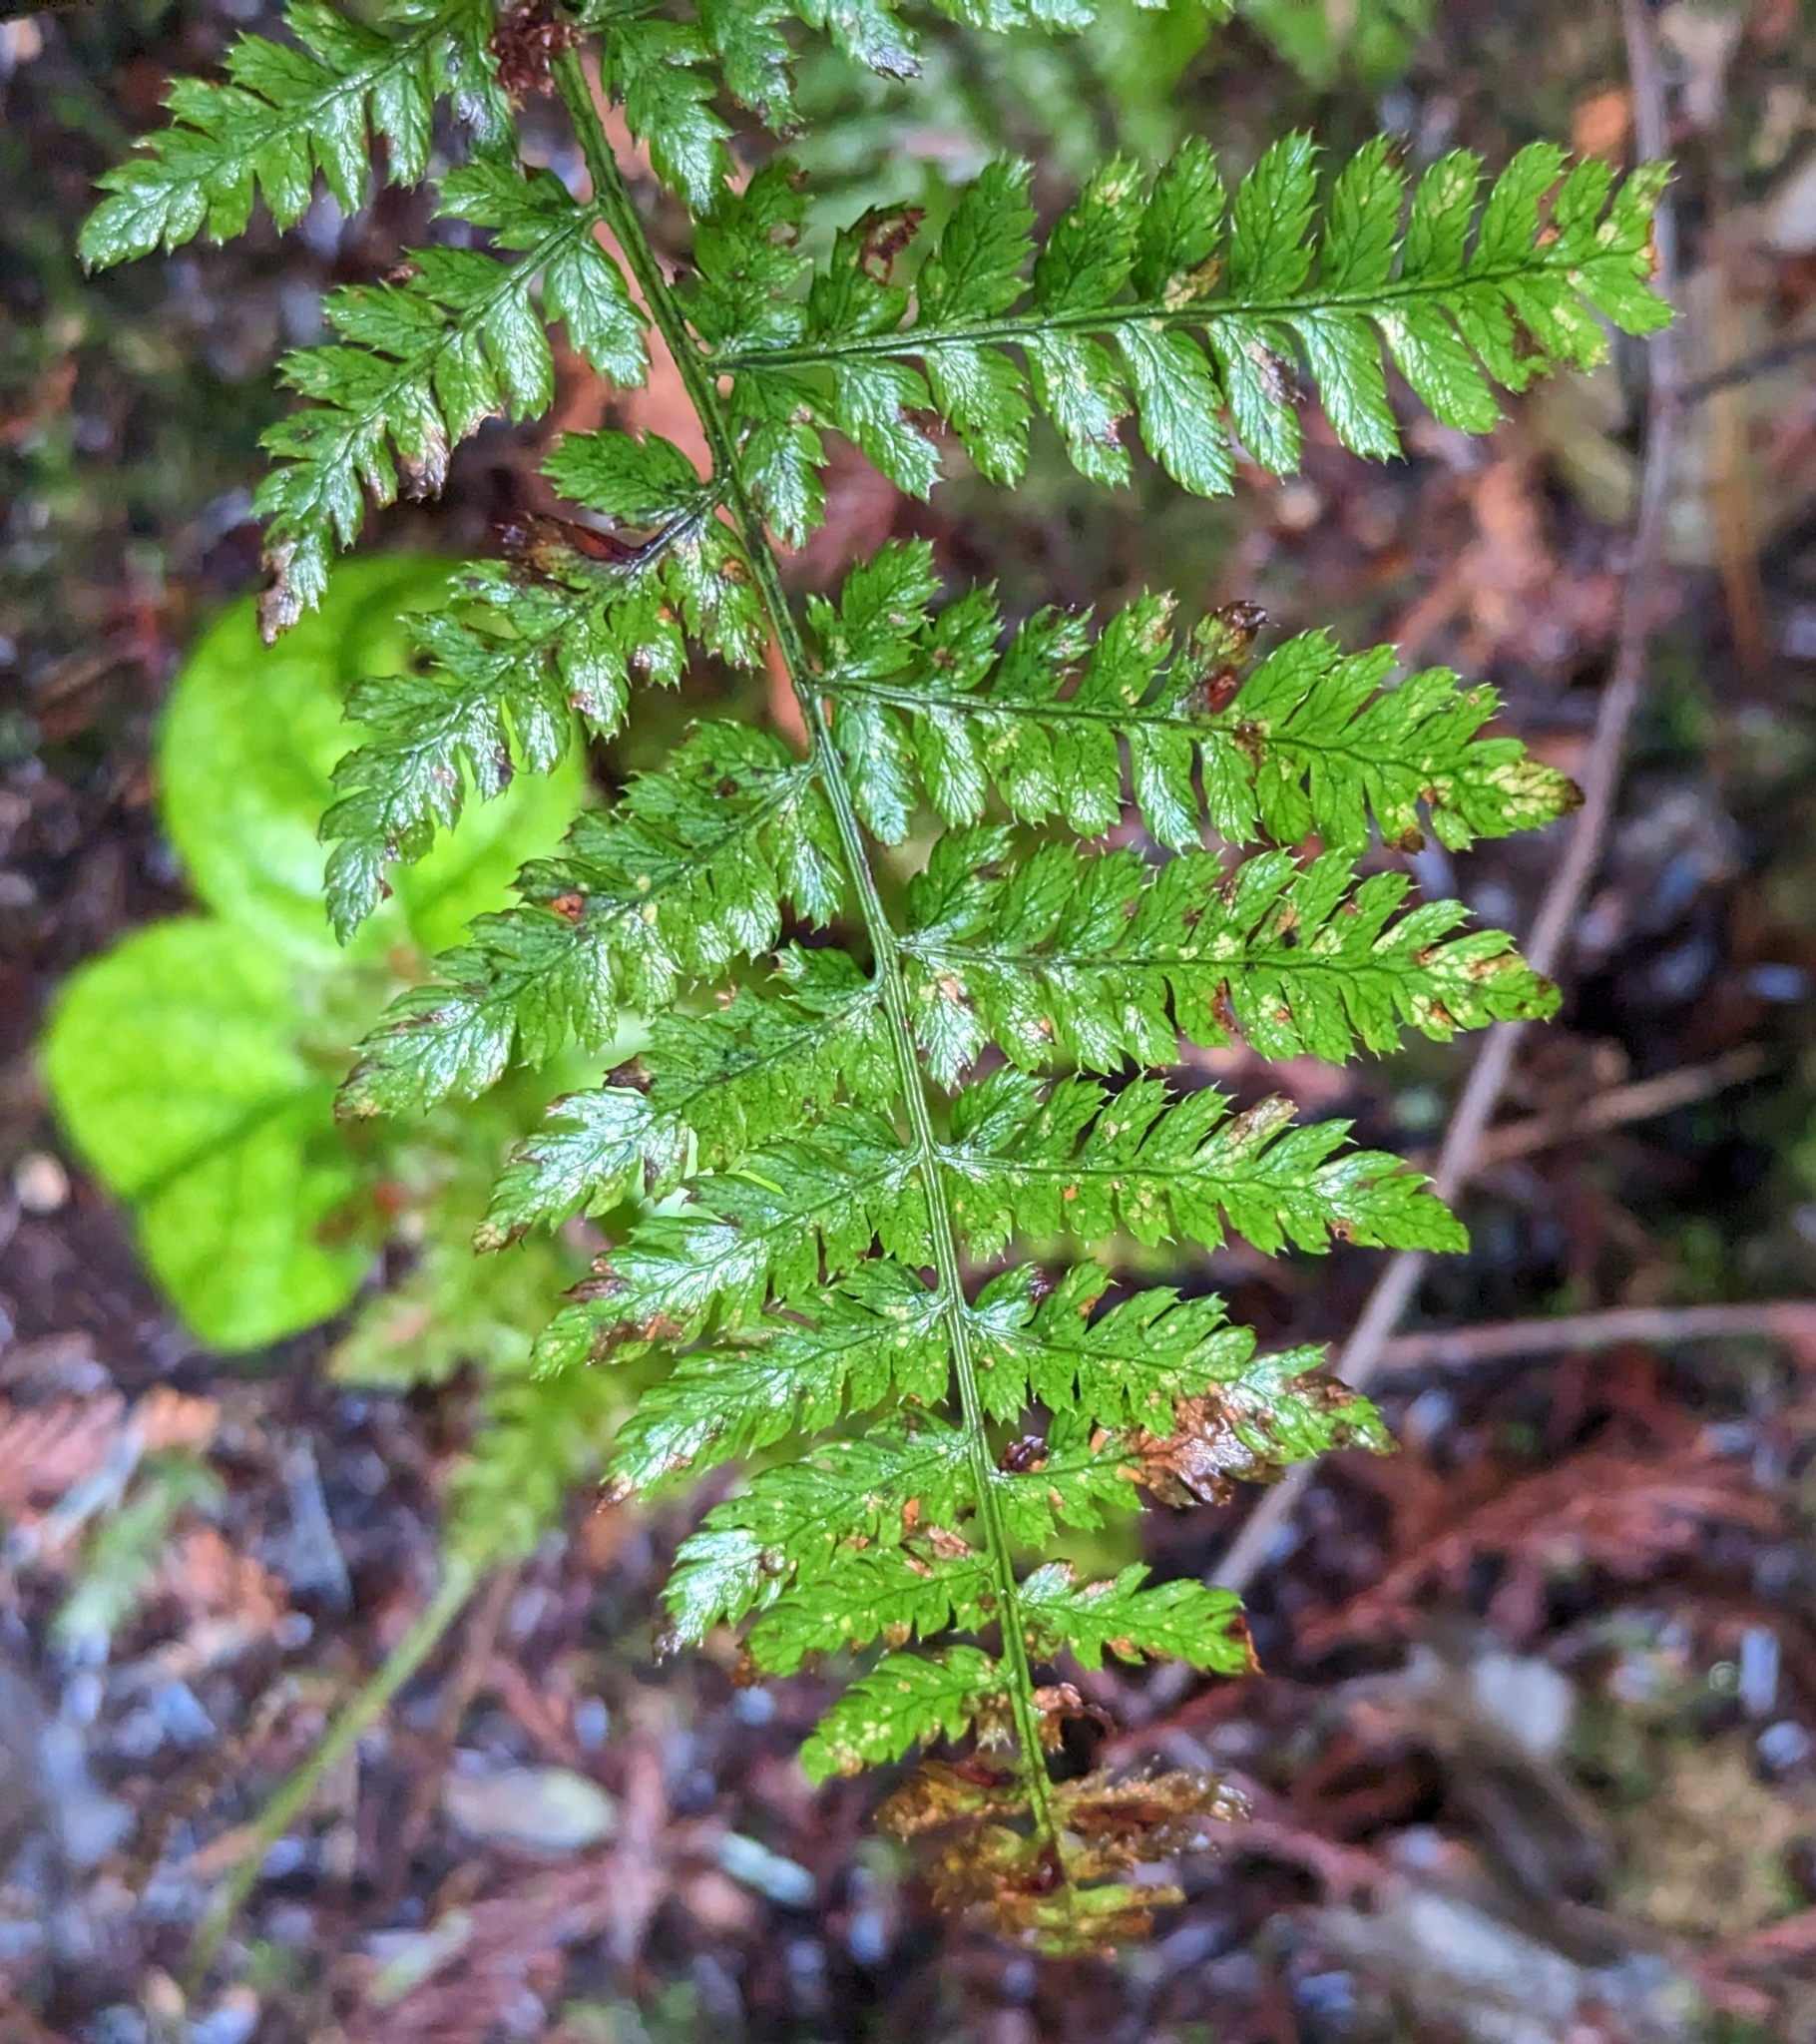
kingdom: Plantae
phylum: Tracheophyta
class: Polypodiopsida
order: Polypodiales
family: Dryopteridaceae
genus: Dryopteris
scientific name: Dryopteris expansa
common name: Northern buckler fern
